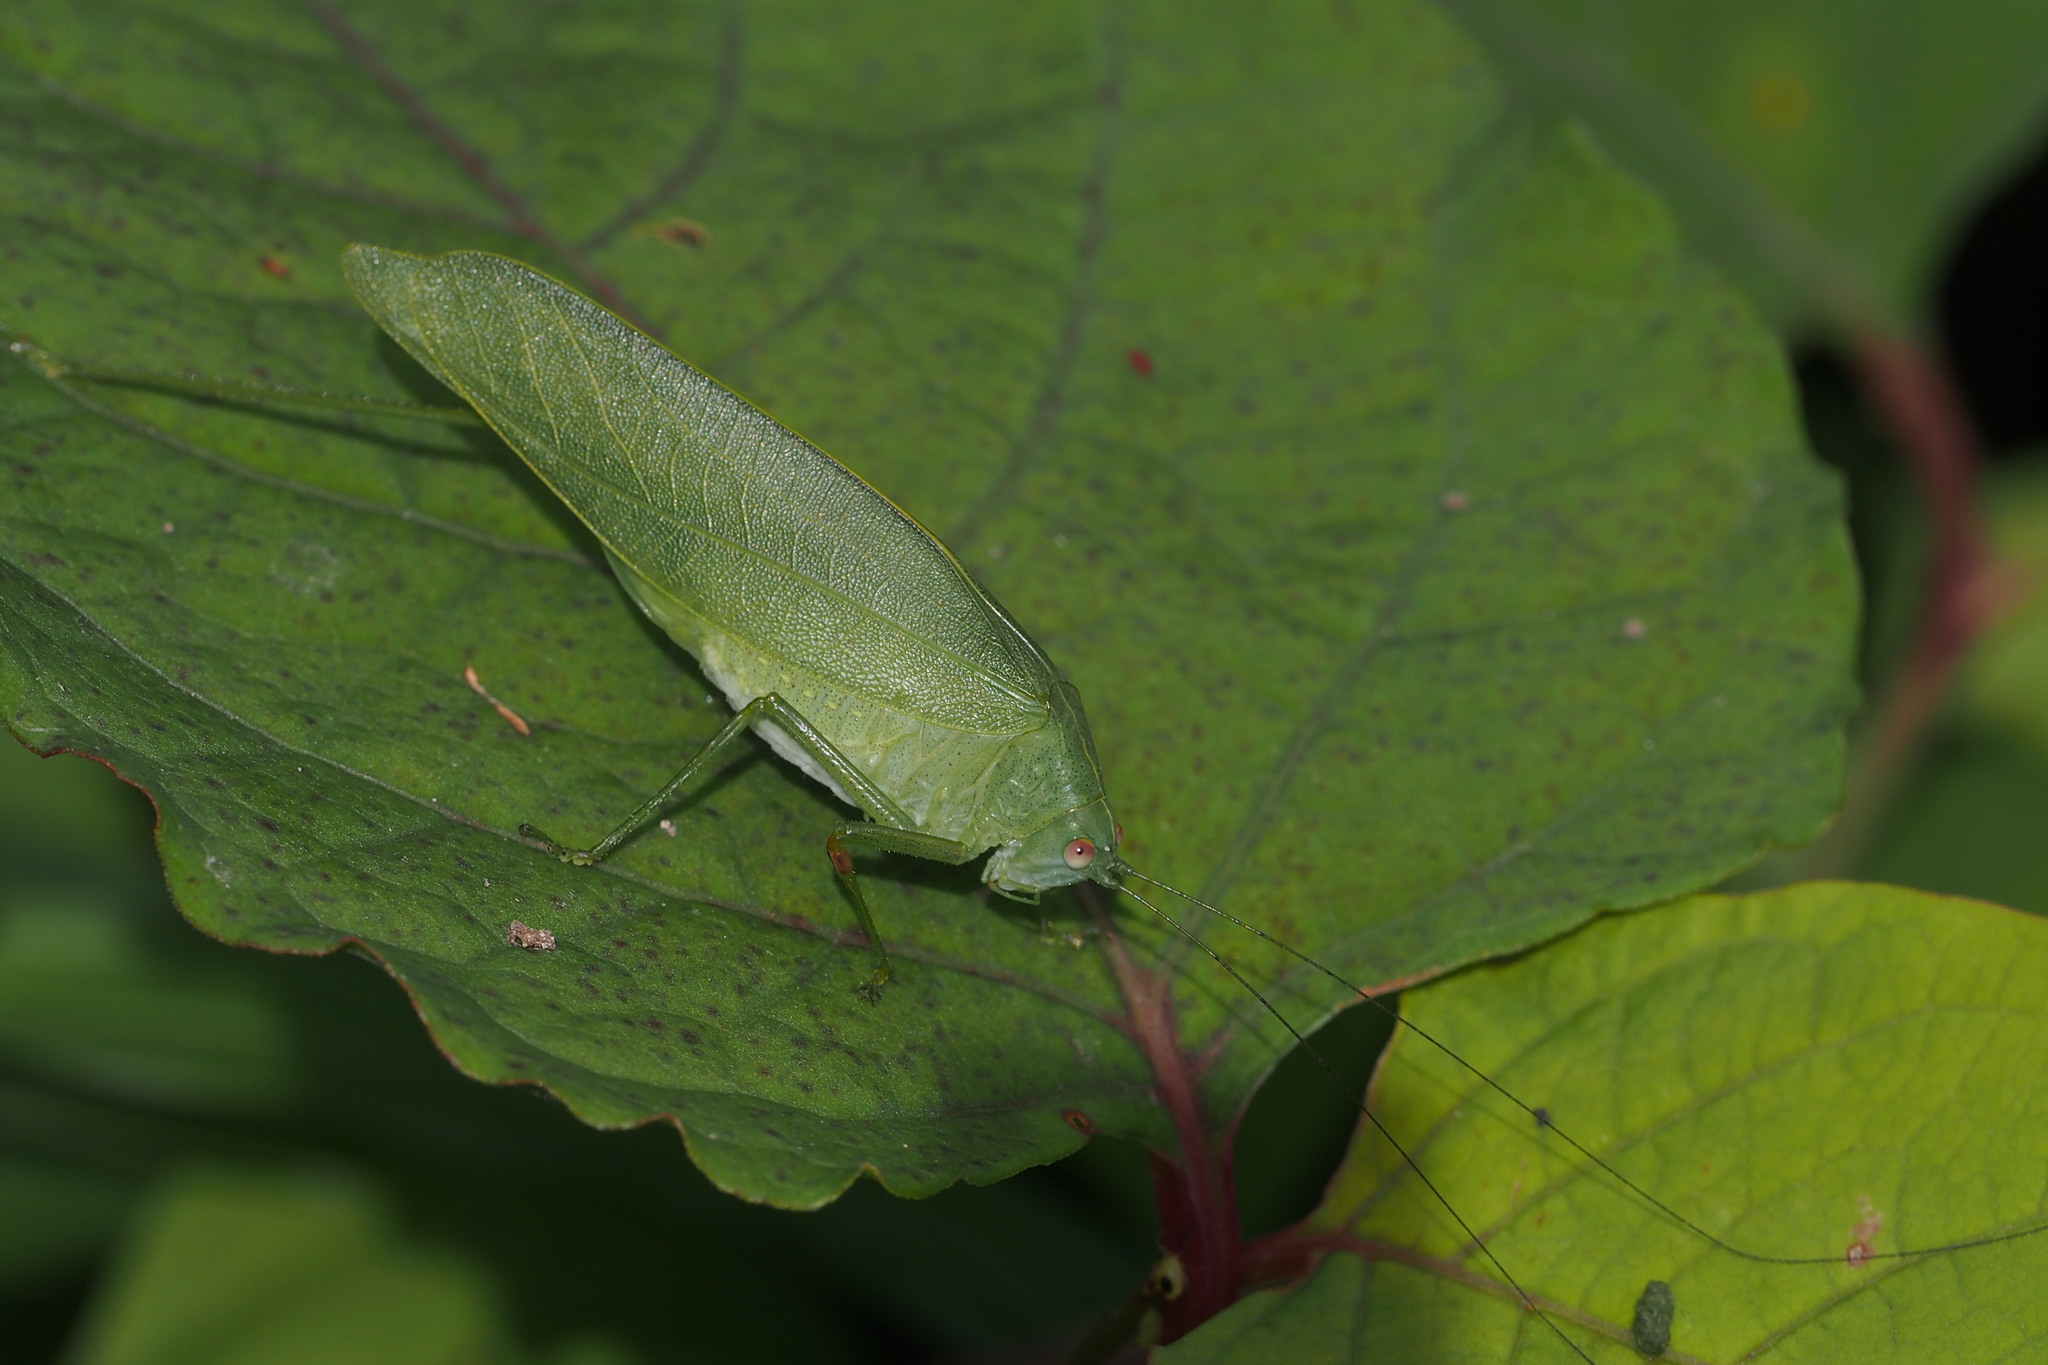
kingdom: Animalia
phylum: Arthropoda
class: Insecta
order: Orthoptera
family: Tettigoniidae
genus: Phaulula
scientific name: Phaulula macilenta
